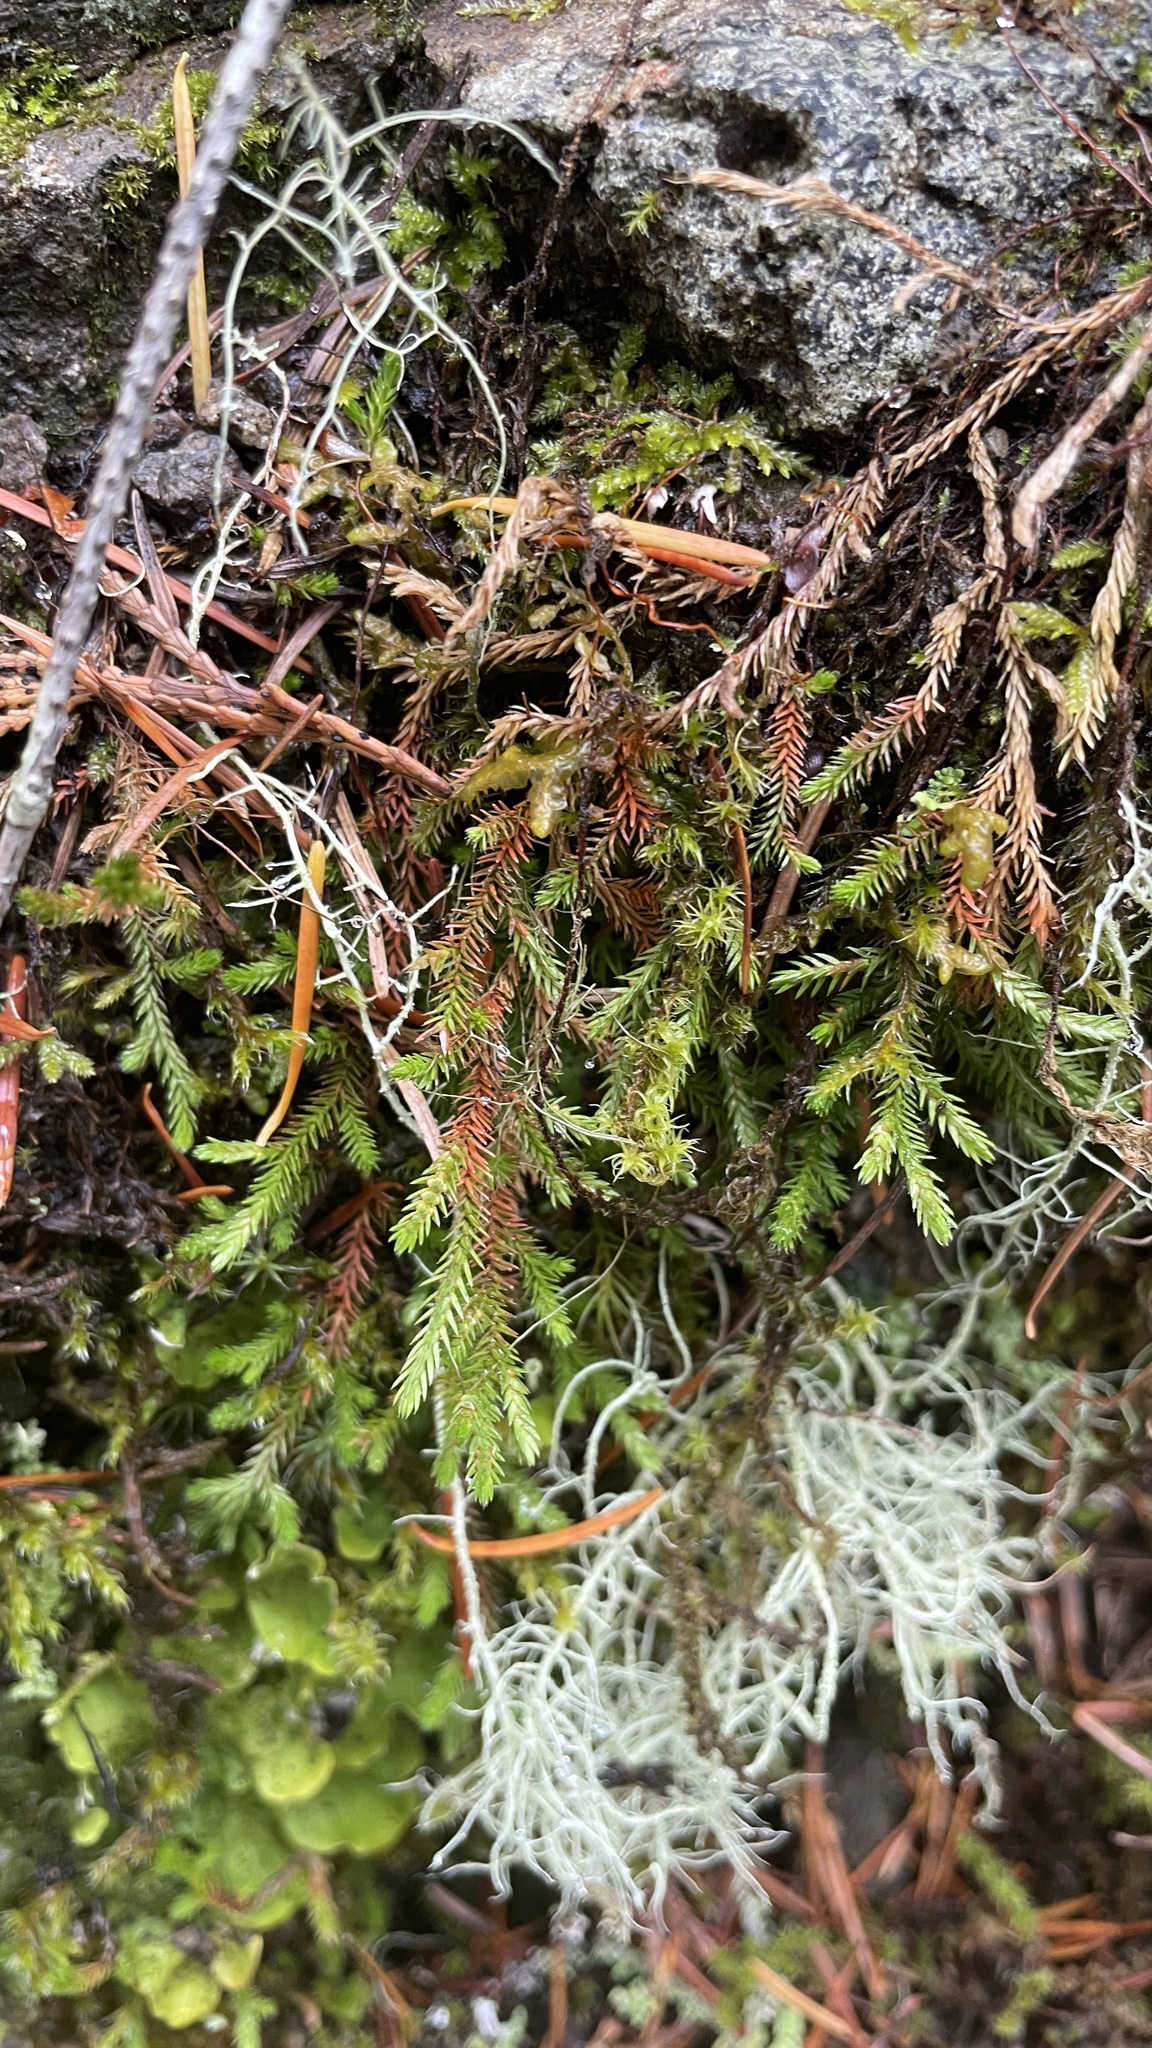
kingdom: Plantae
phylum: Tracheophyta
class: Lycopodiopsida
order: Selaginellales
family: Selaginellaceae
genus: Selaginella
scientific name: Selaginella wallacei
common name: Wallace's selaginella
